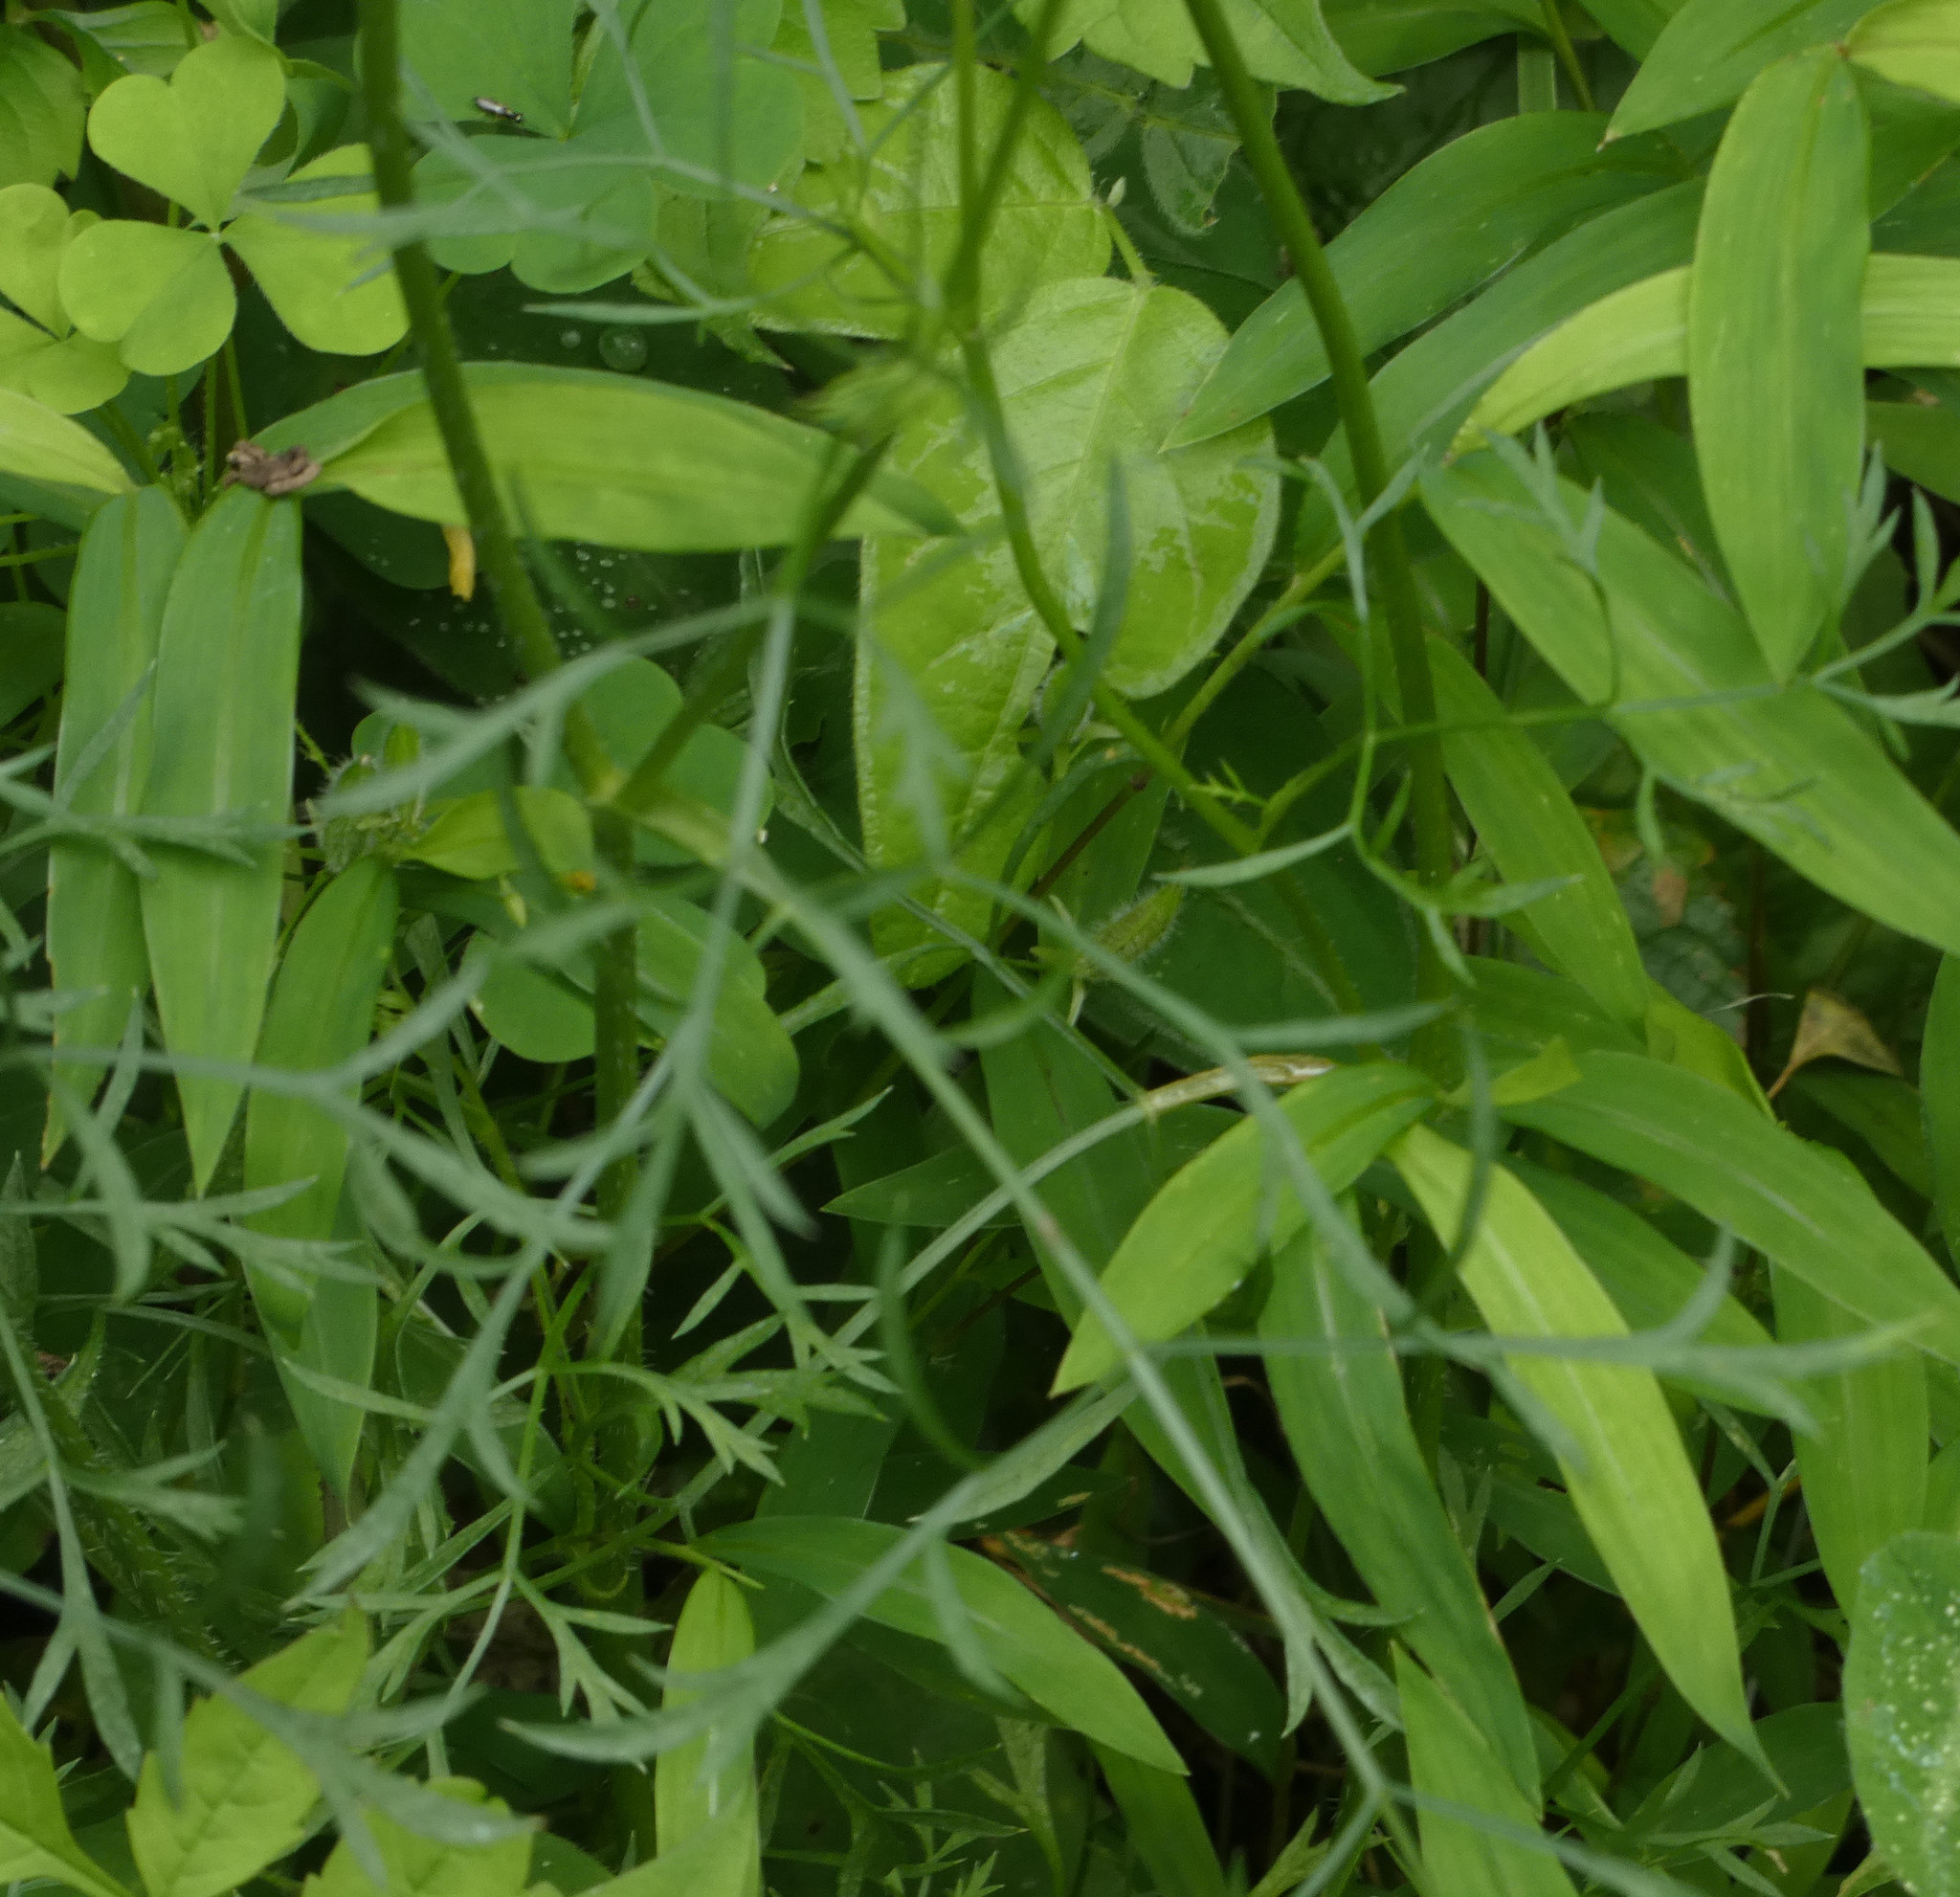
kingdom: Plantae
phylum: Tracheophyta
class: Magnoliopsida
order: Apiales
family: Apiaceae
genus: Daucus
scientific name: Daucus carota
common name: Wild carrot
